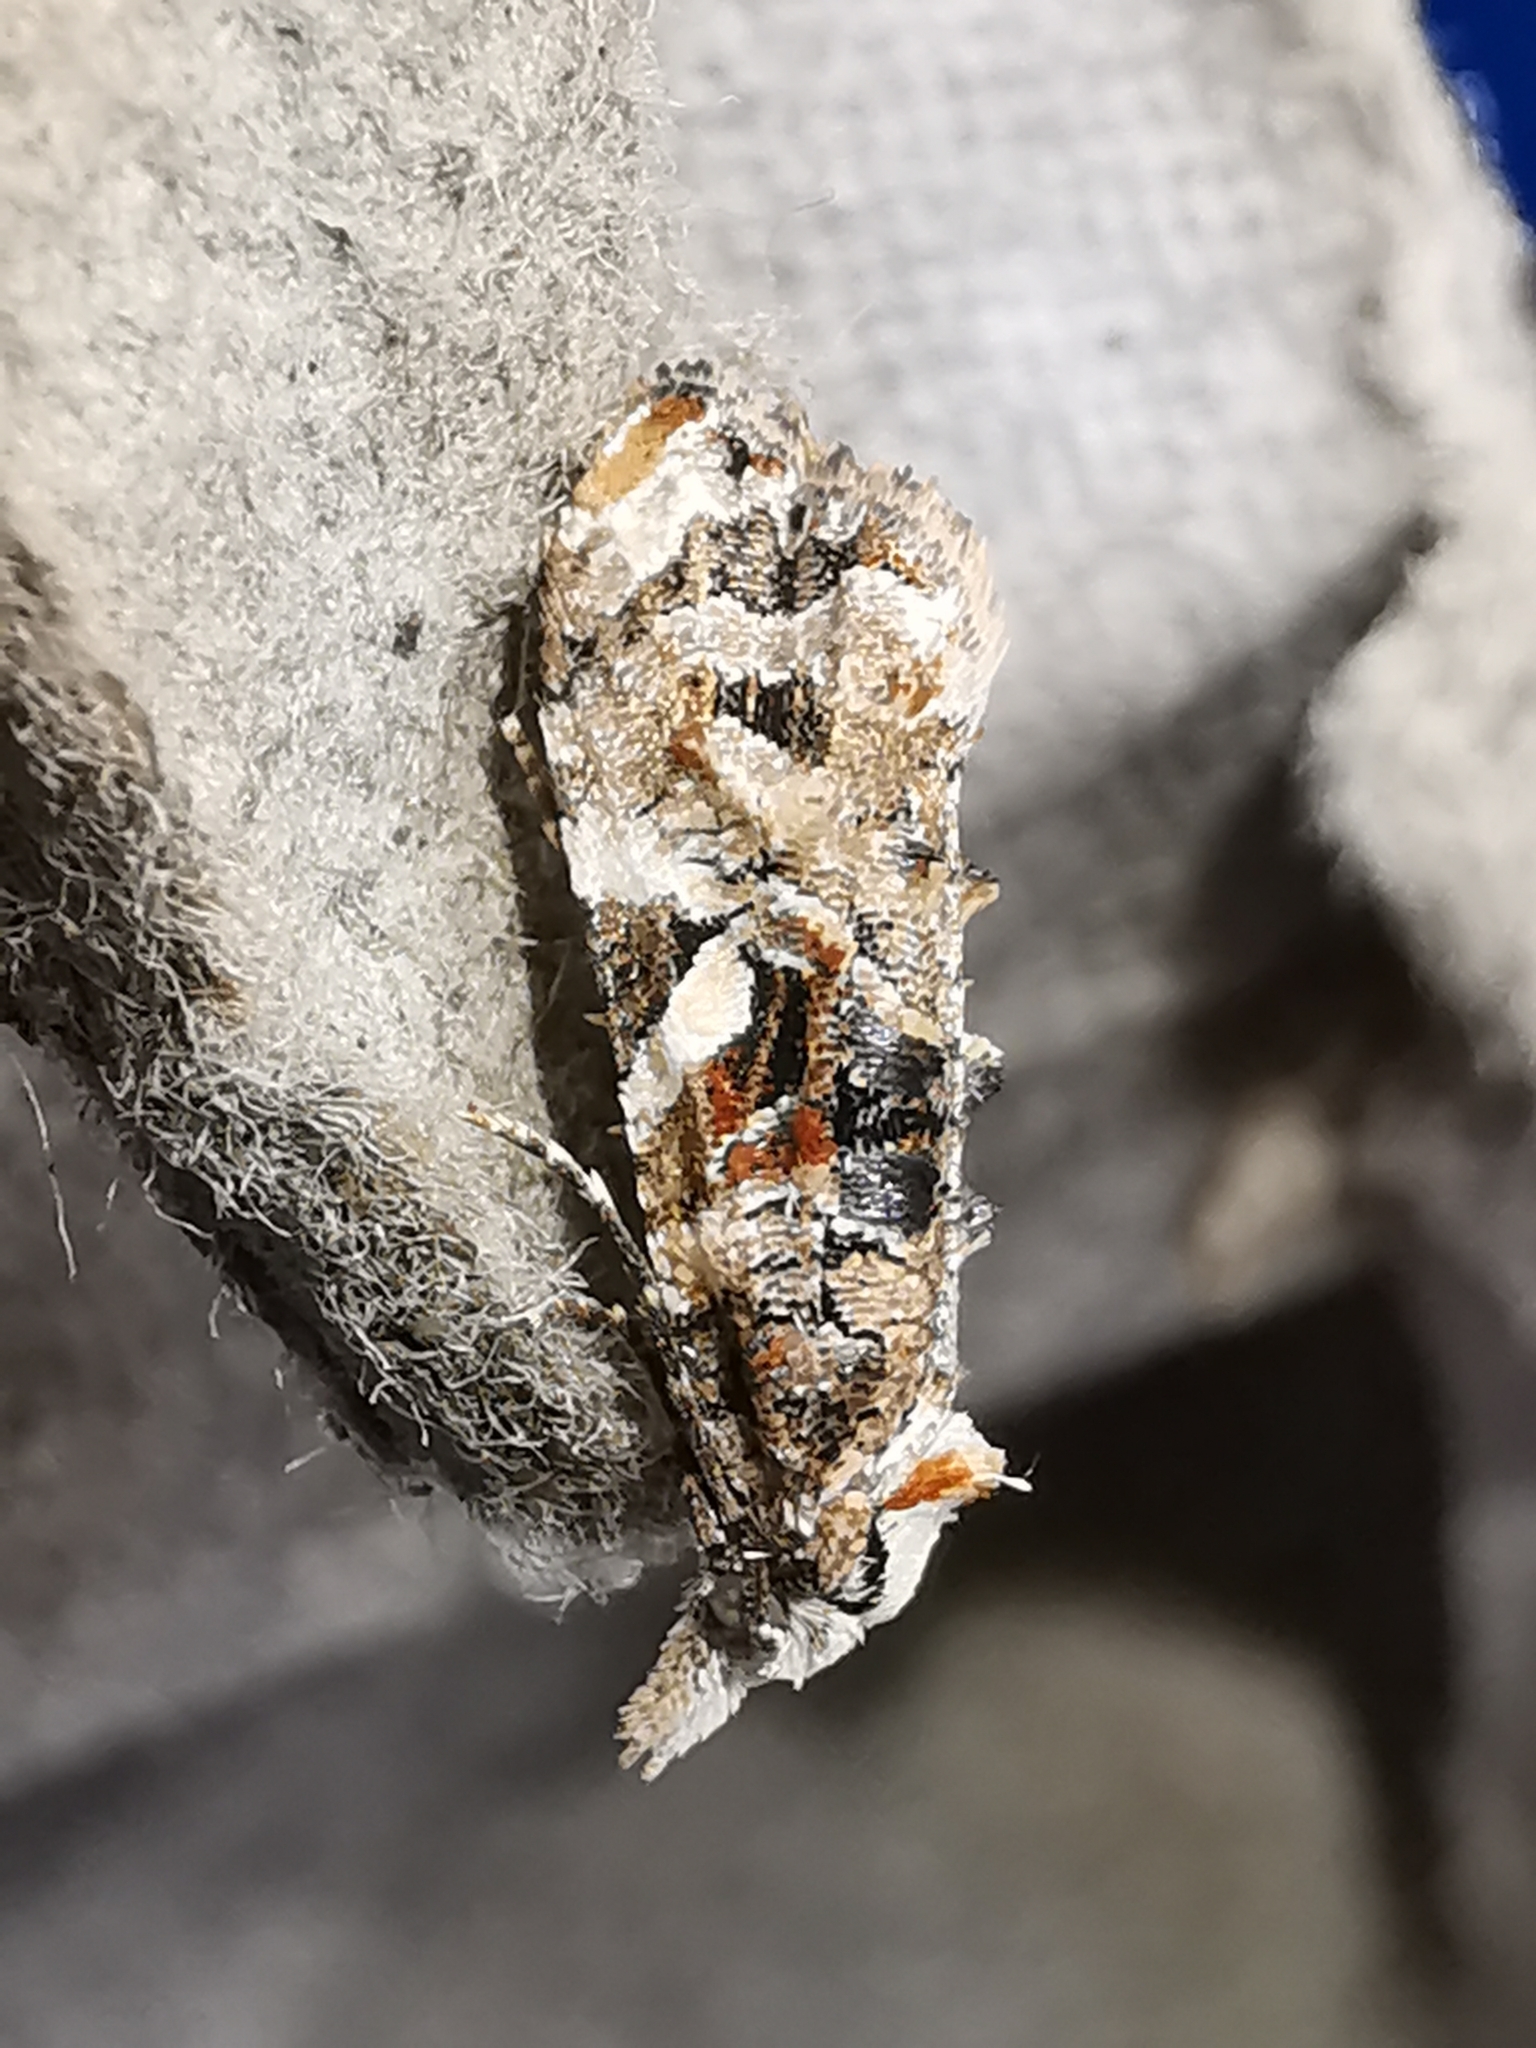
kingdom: Animalia
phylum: Arthropoda
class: Insecta
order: Lepidoptera
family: Tortricidae
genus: Phtheochroa
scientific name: Phtheochroa rugosana
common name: Rough-winged conch
